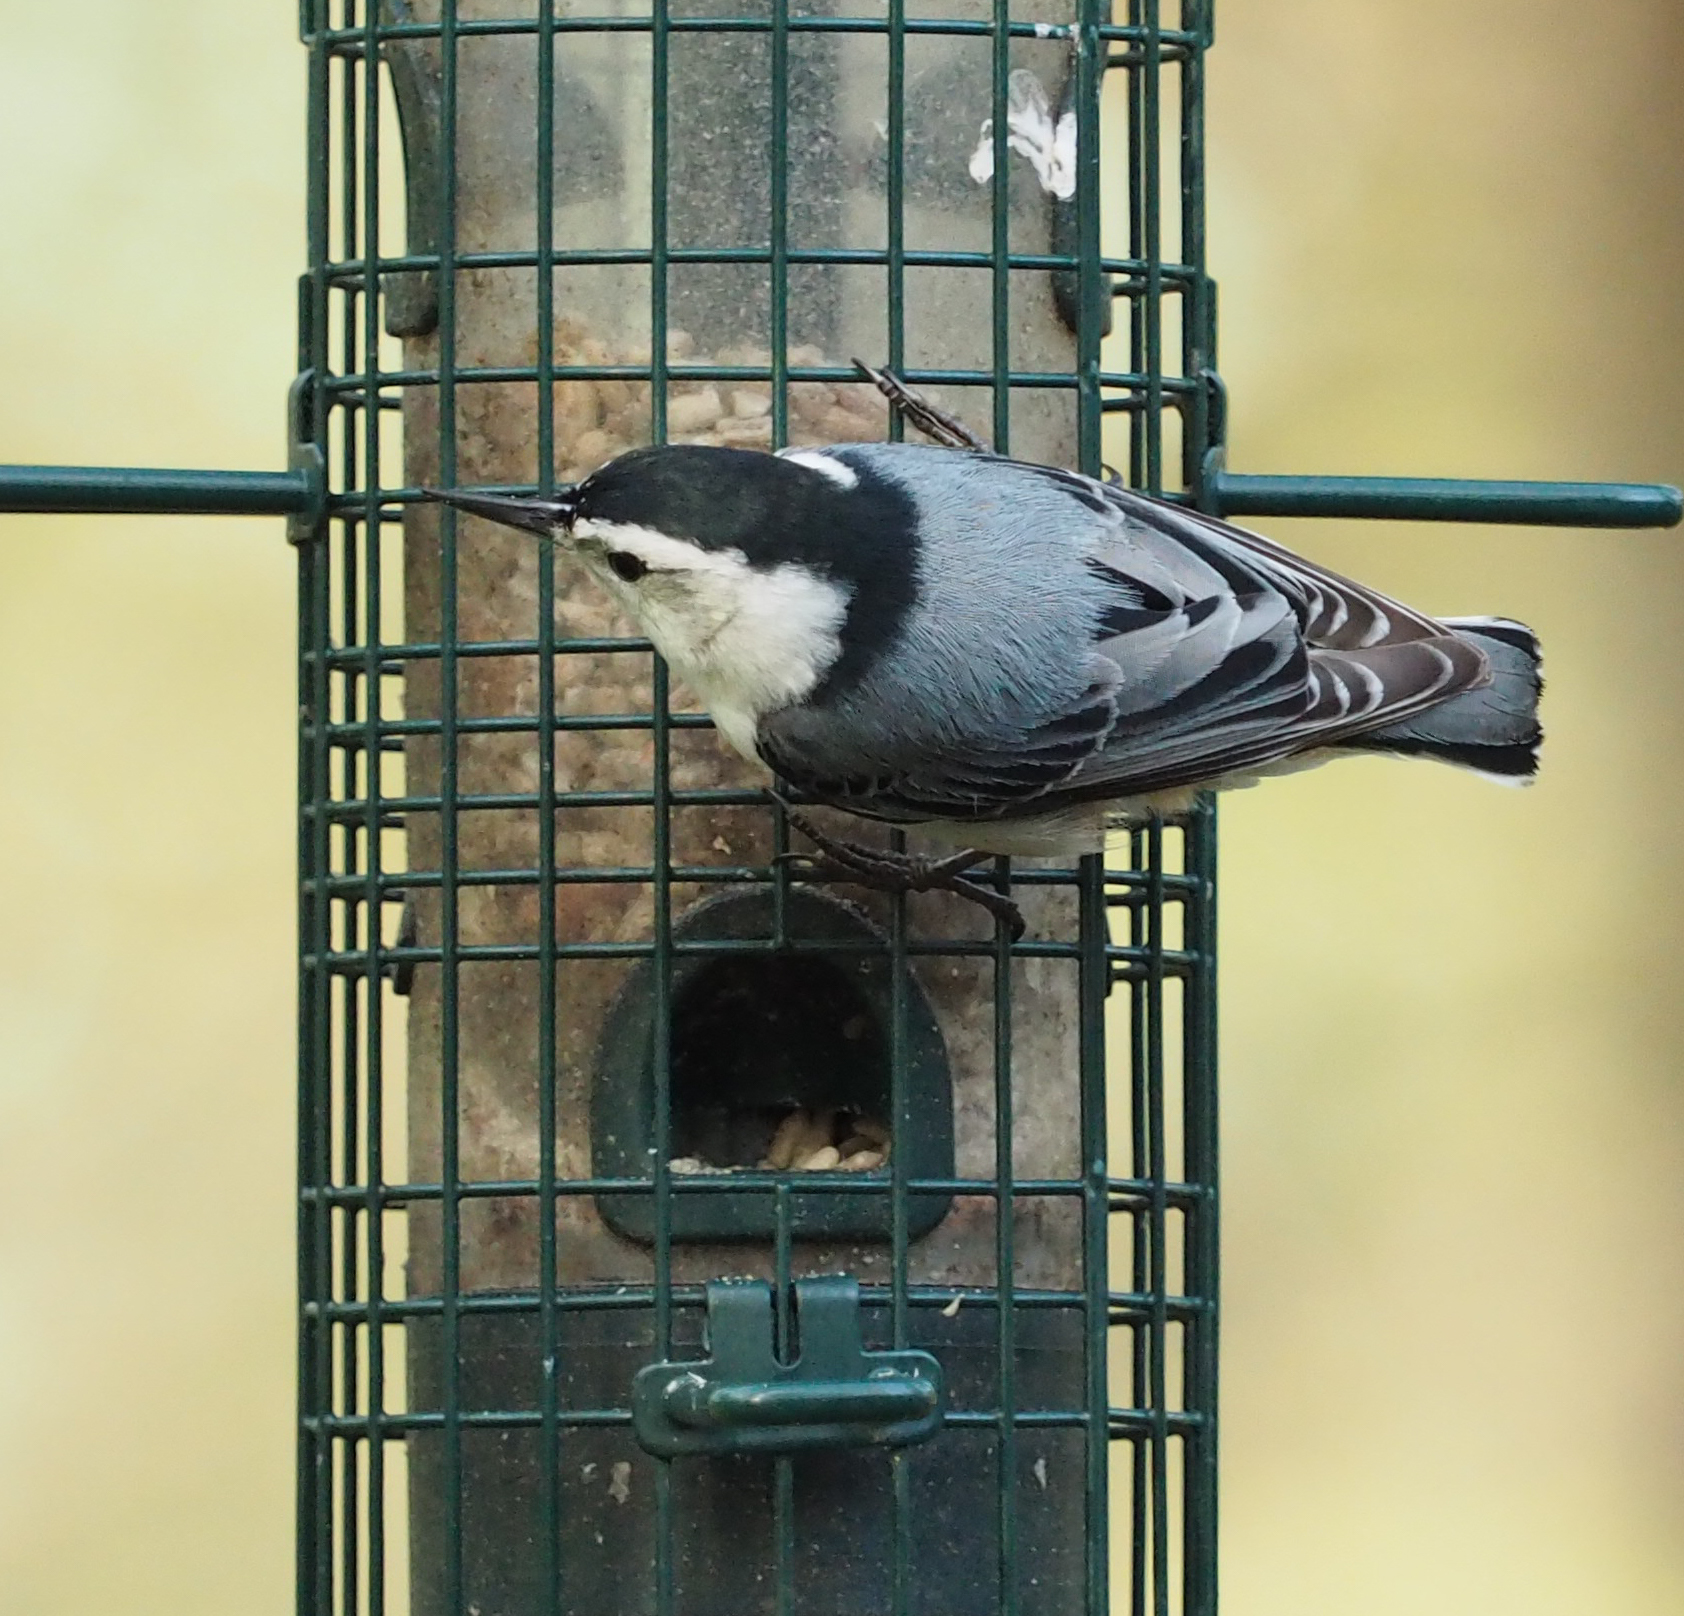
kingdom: Animalia
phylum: Chordata
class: Aves
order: Passeriformes
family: Sittidae
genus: Sitta
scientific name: Sitta carolinensis
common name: White-breasted nuthatch
